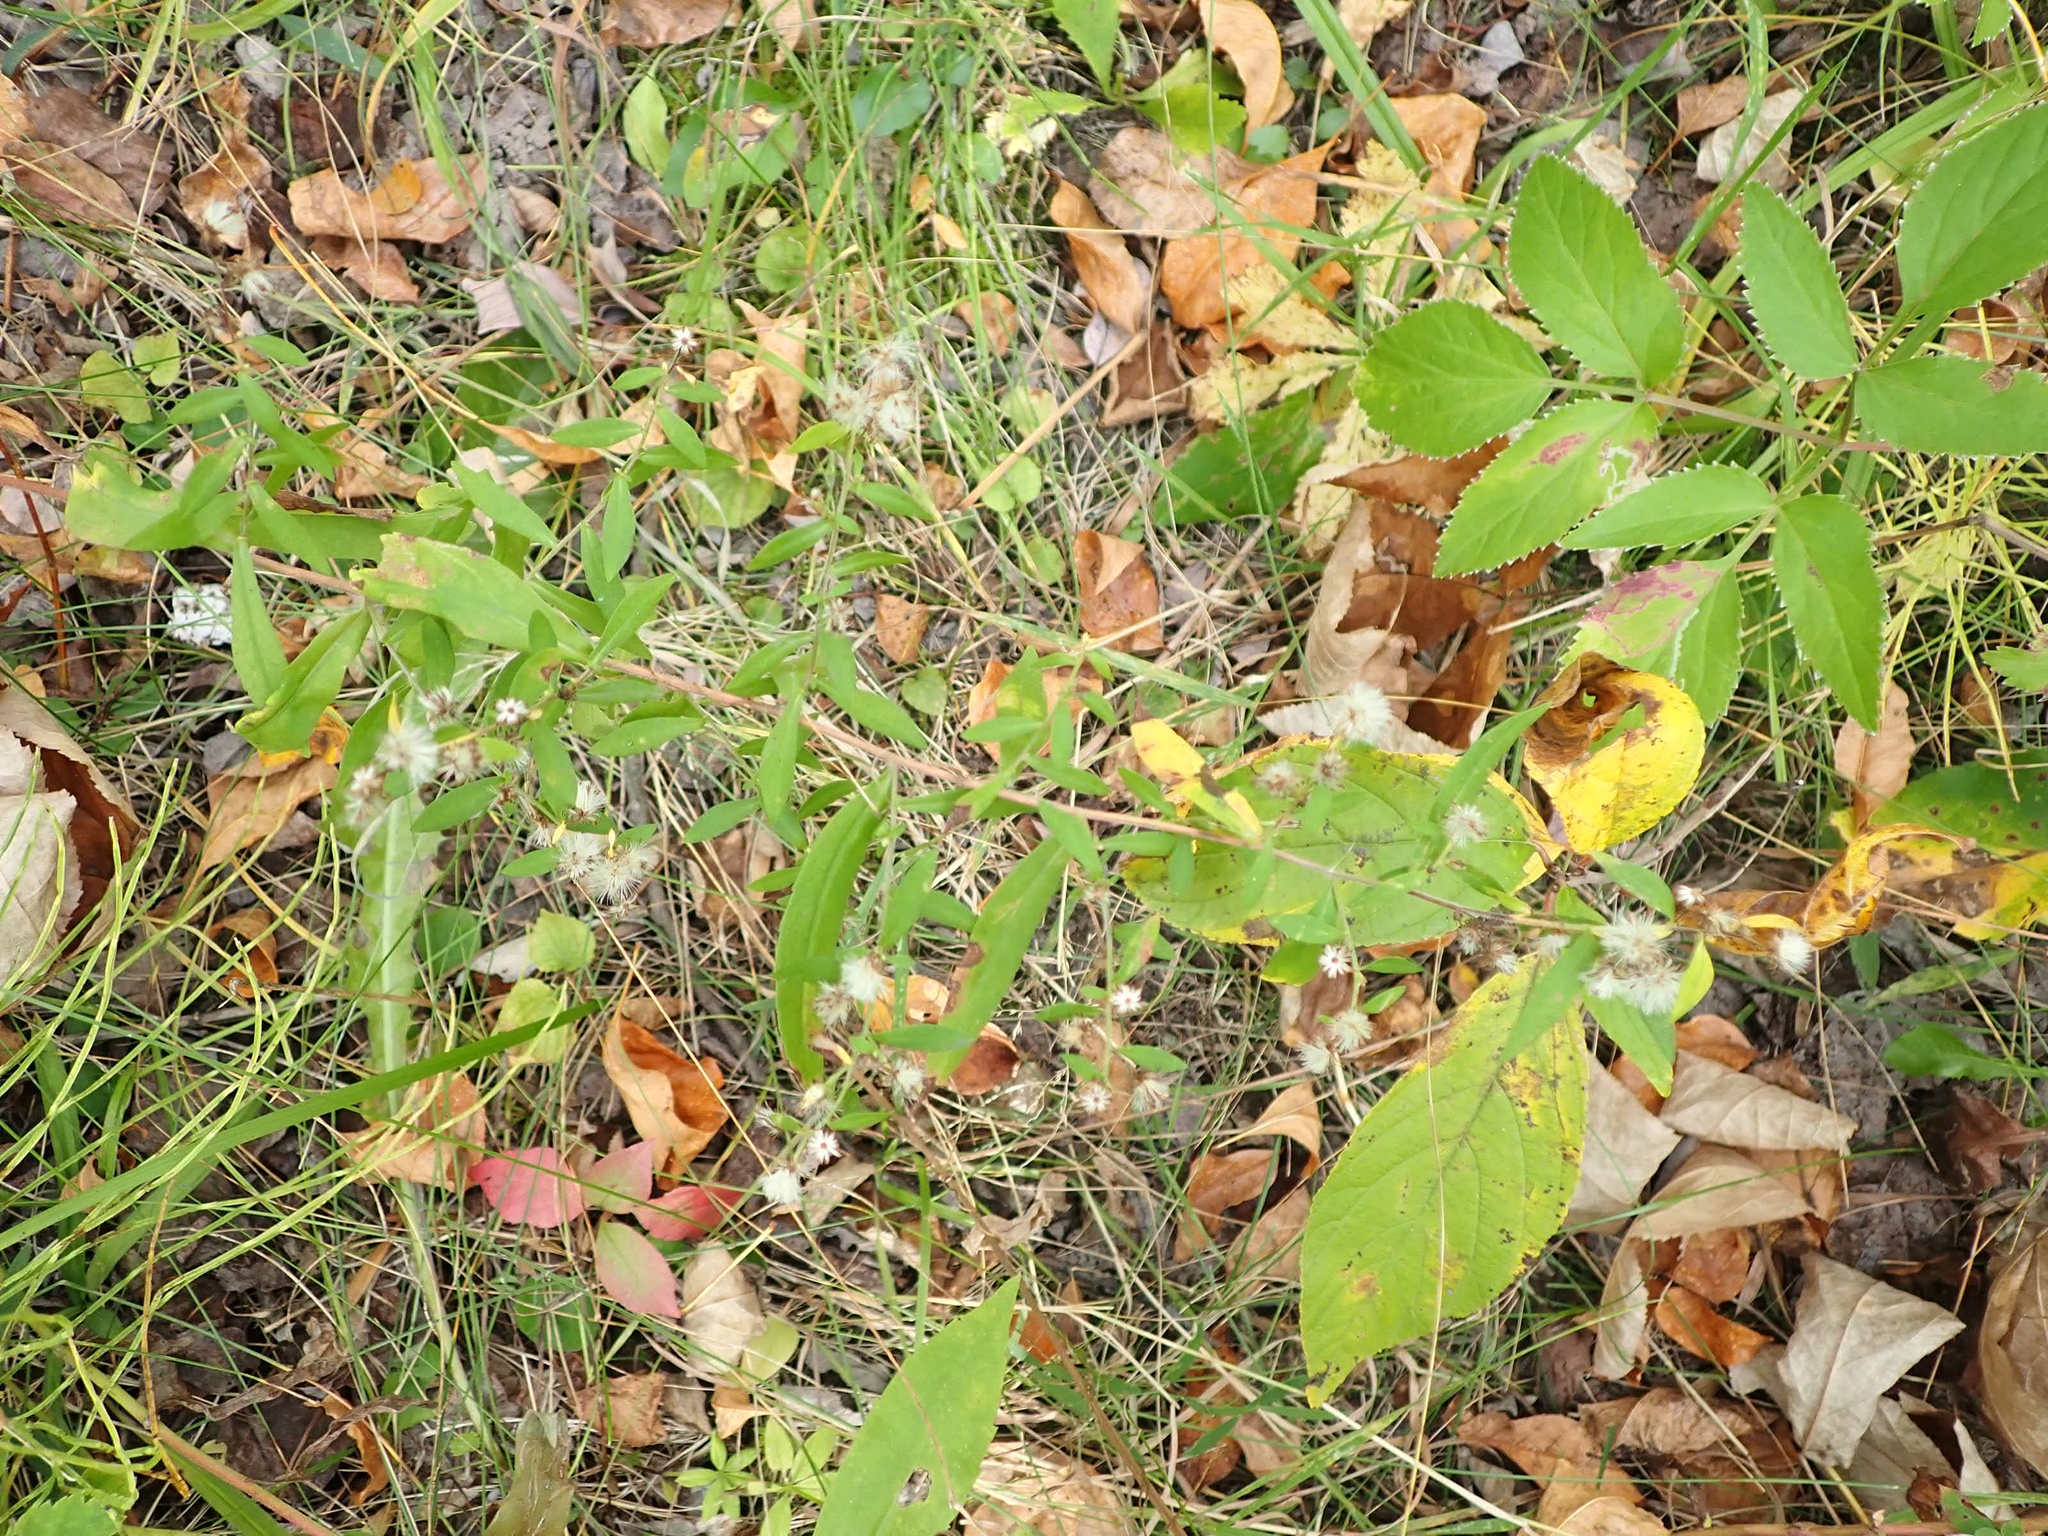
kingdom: Plantae
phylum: Tracheophyta
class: Magnoliopsida
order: Asterales
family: Asteraceae
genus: Symphyotrichum
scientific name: Symphyotrichum lateriflorum
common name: Calico aster
